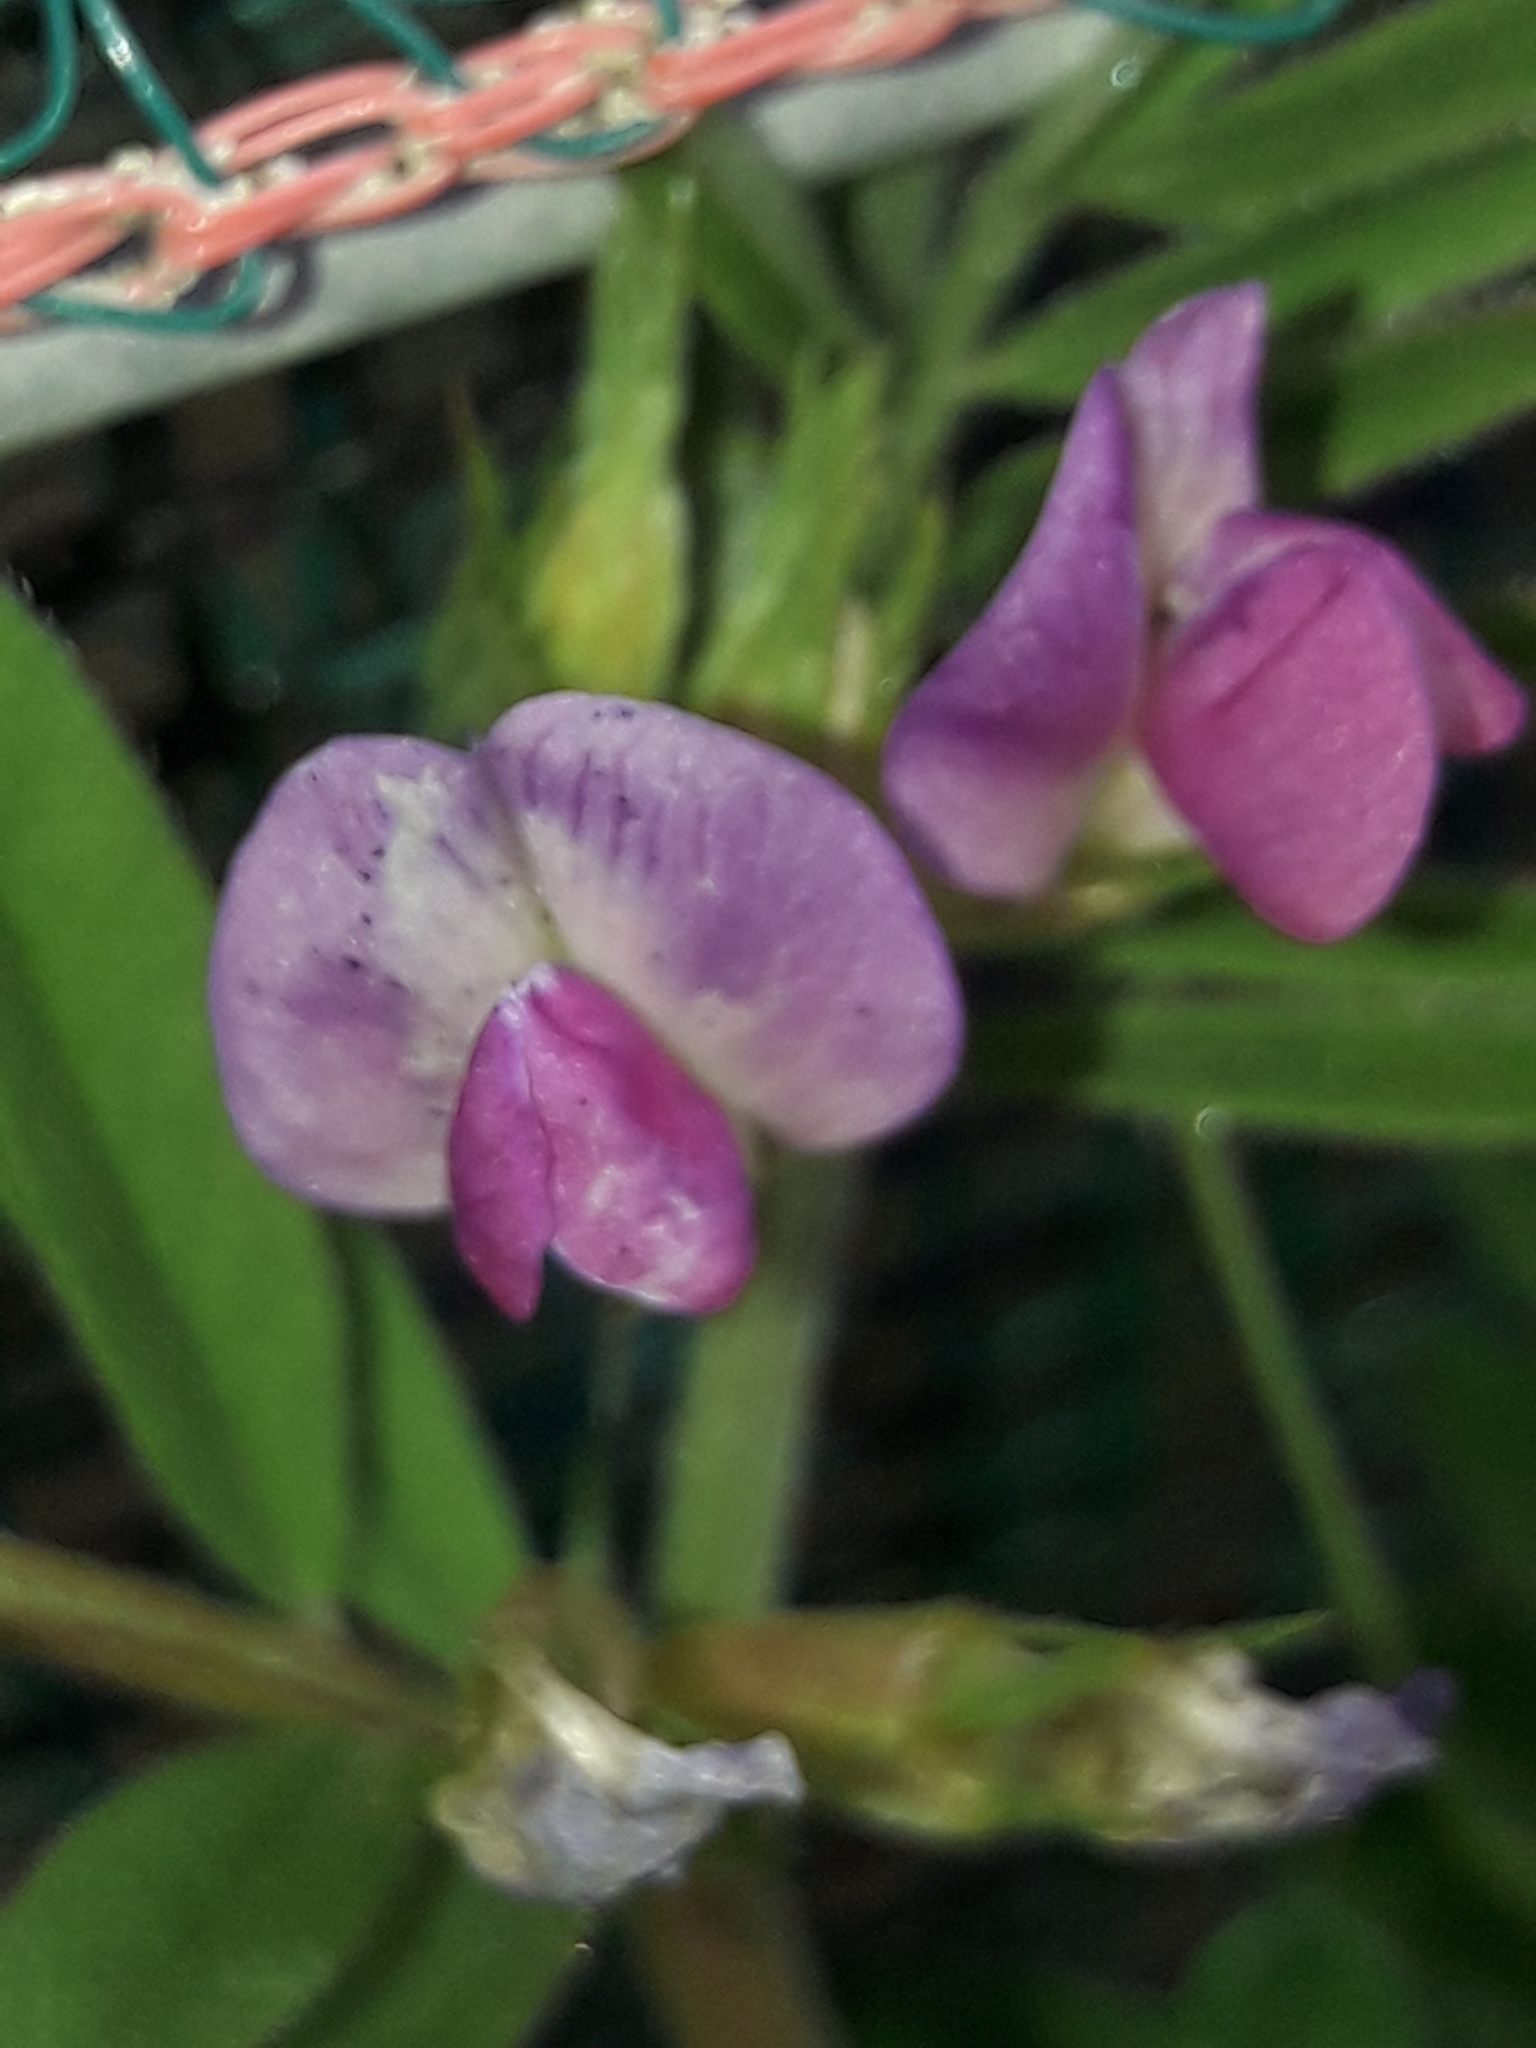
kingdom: Plantae
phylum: Tracheophyta
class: Magnoliopsida
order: Fabales
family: Fabaceae
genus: Vicia
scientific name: Vicia sativa
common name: Garden vetch
